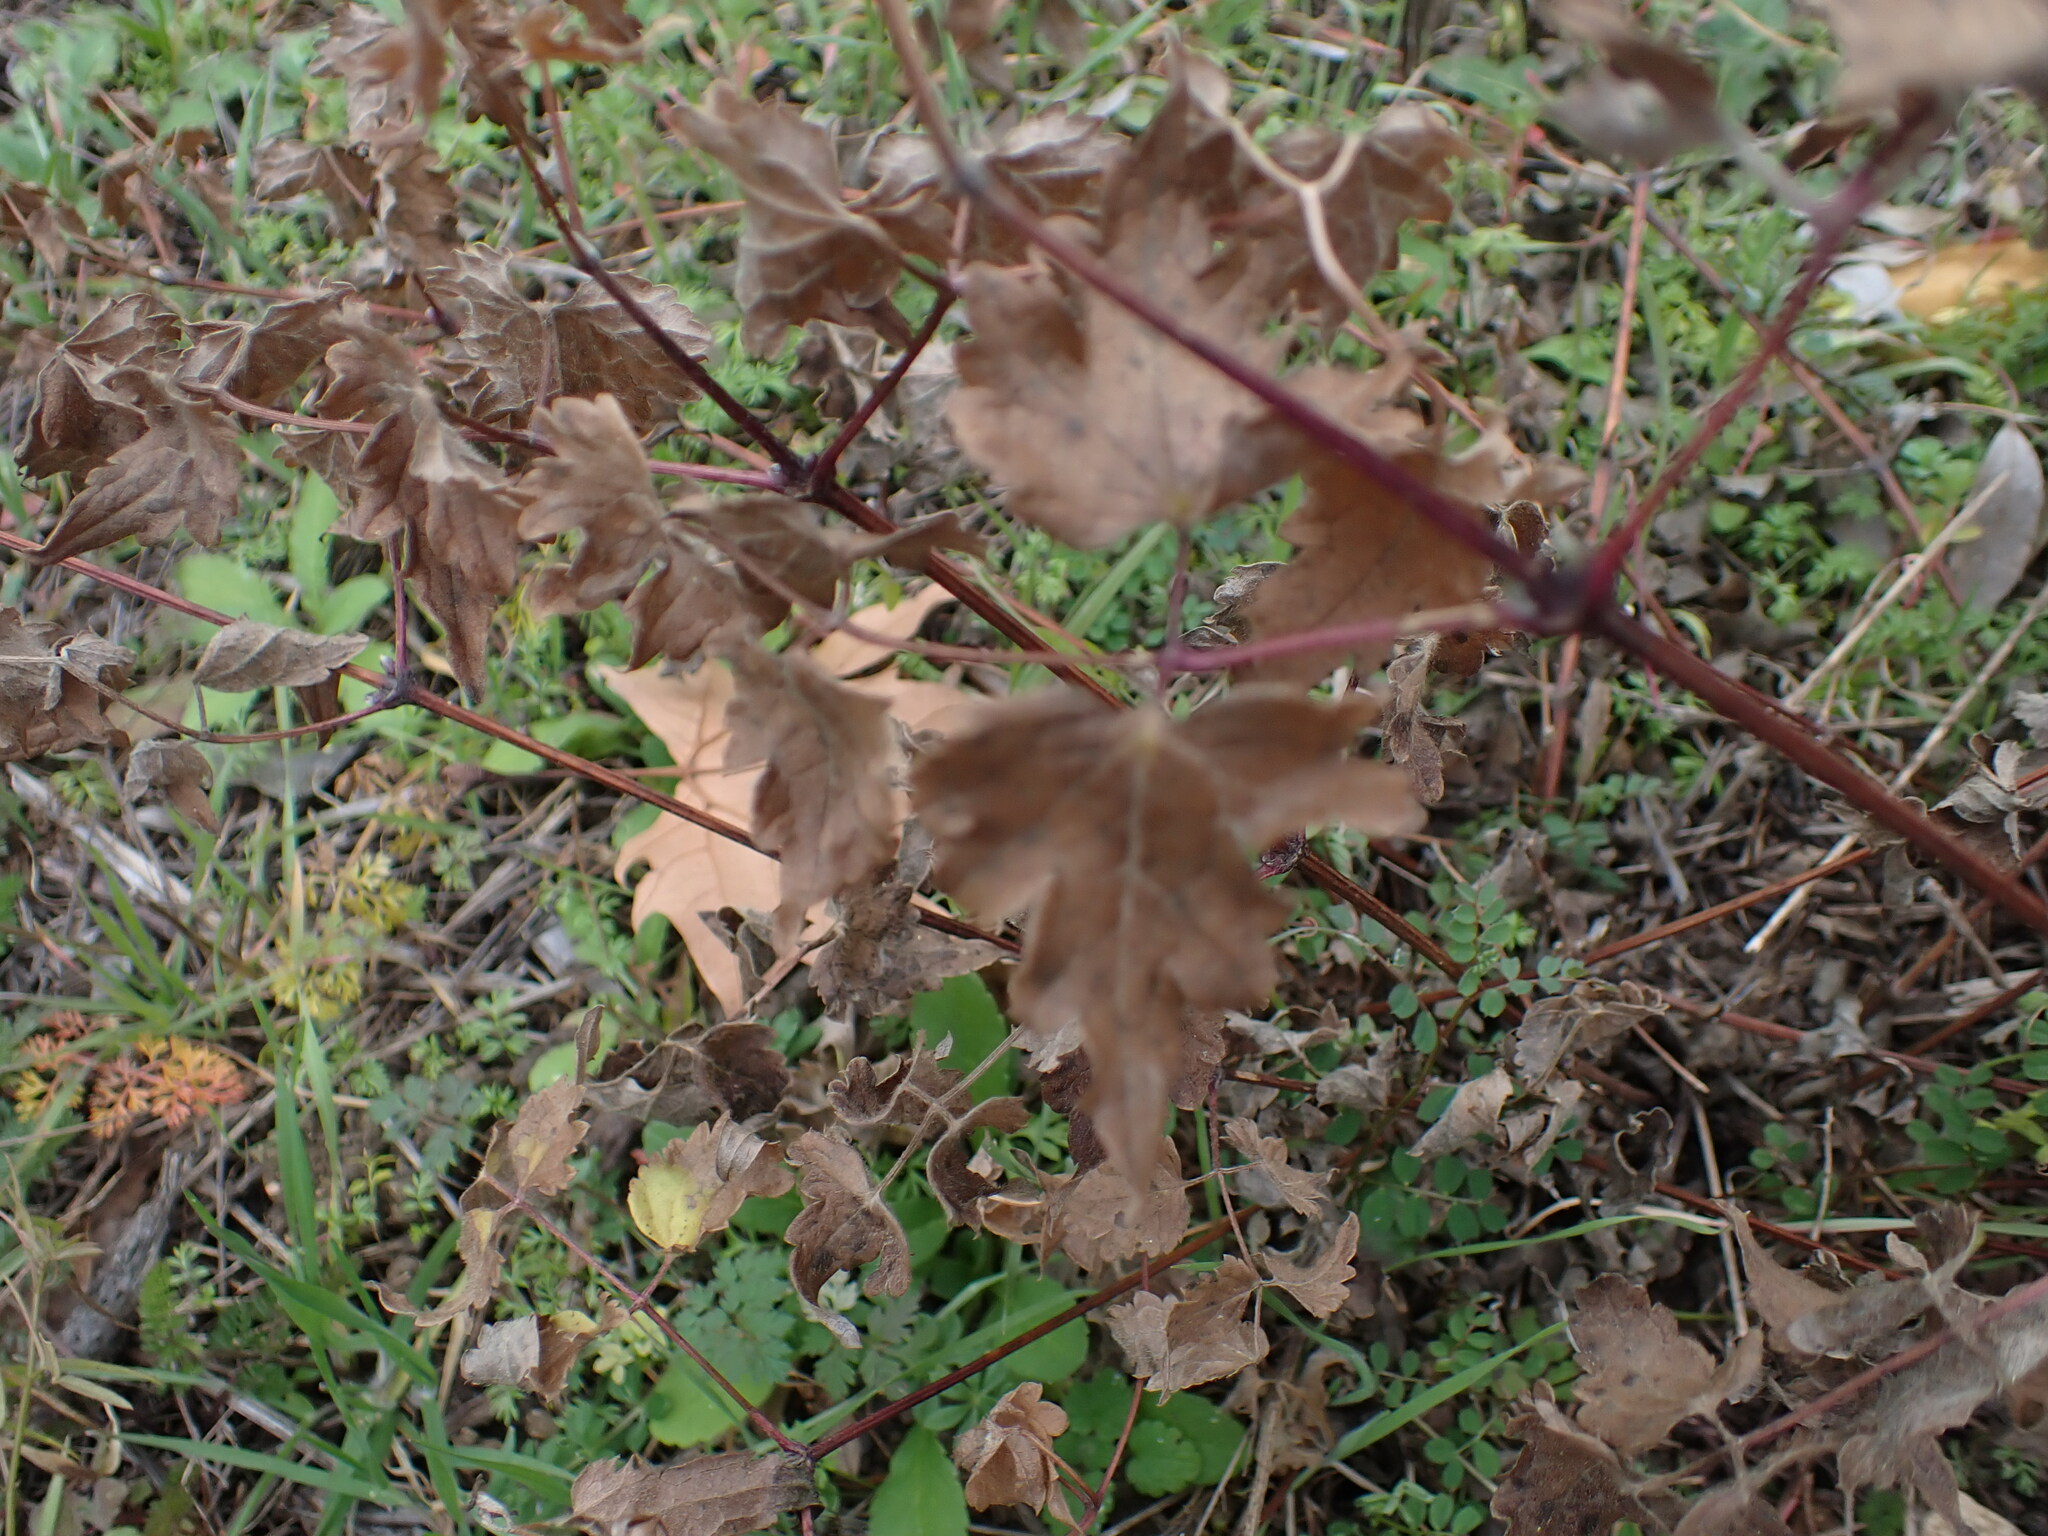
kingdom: Plantae
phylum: Tracheophyta
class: Magnoliopsida
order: Ranunculales
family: Ranunculaceae
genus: Clematis
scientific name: Clematis vitalba
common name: Evergreen clematis
